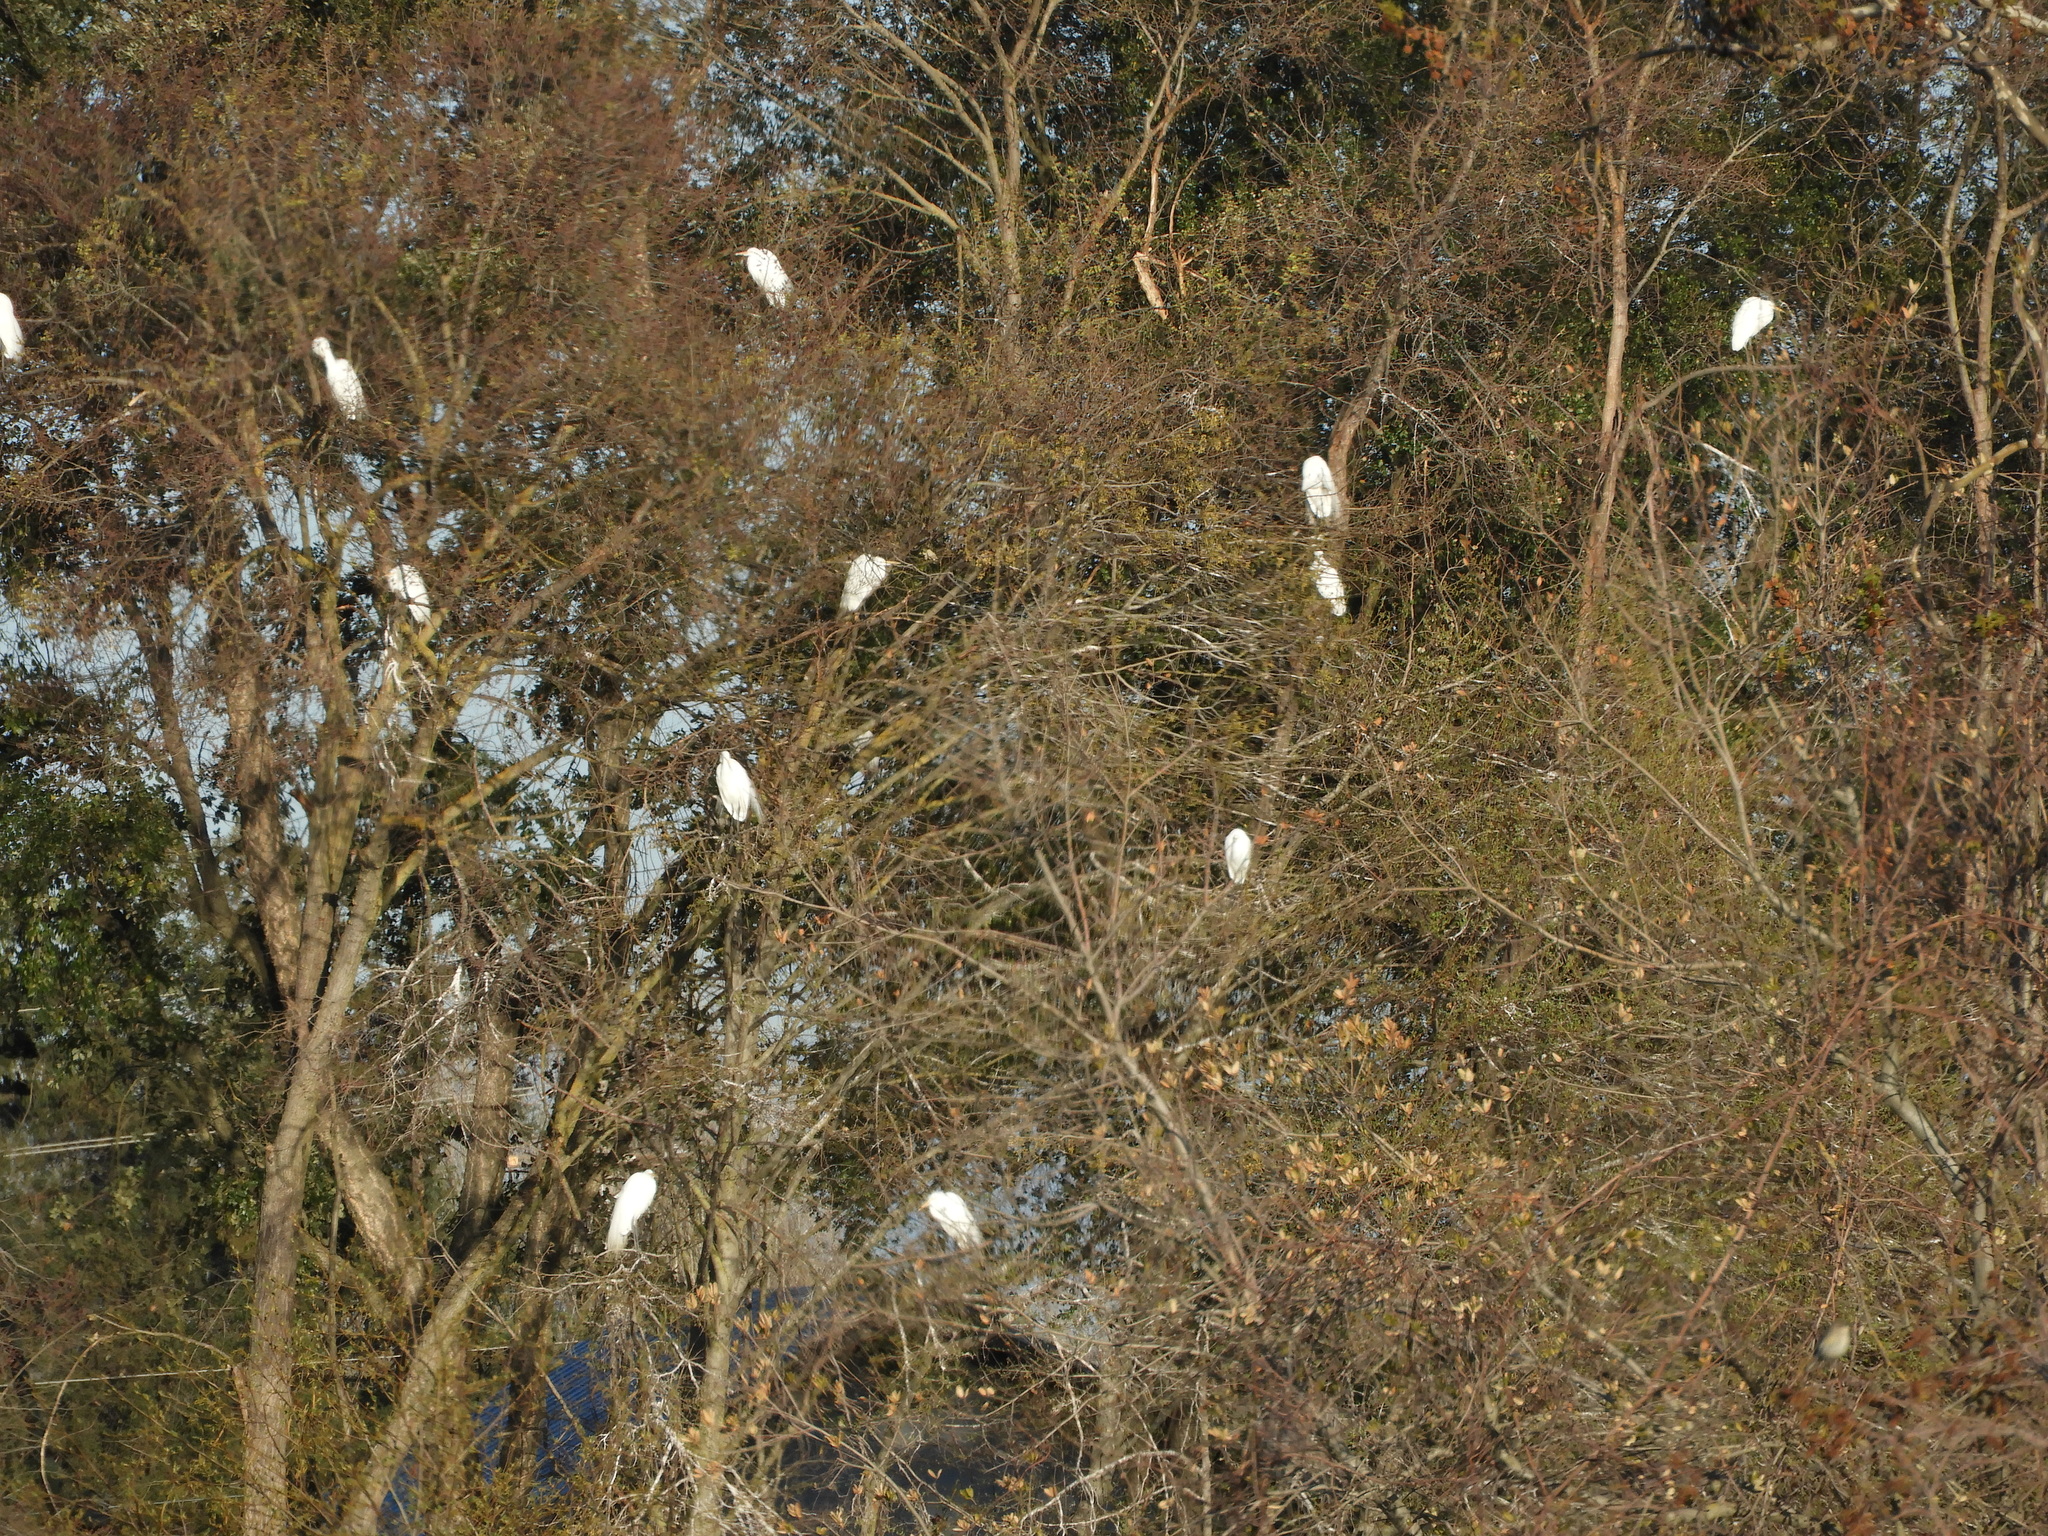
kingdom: Animalia
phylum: Chordata
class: Aves
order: Pelecaniformes
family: Ardeidae
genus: Ardea
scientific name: Ardea alba
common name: Great egret
